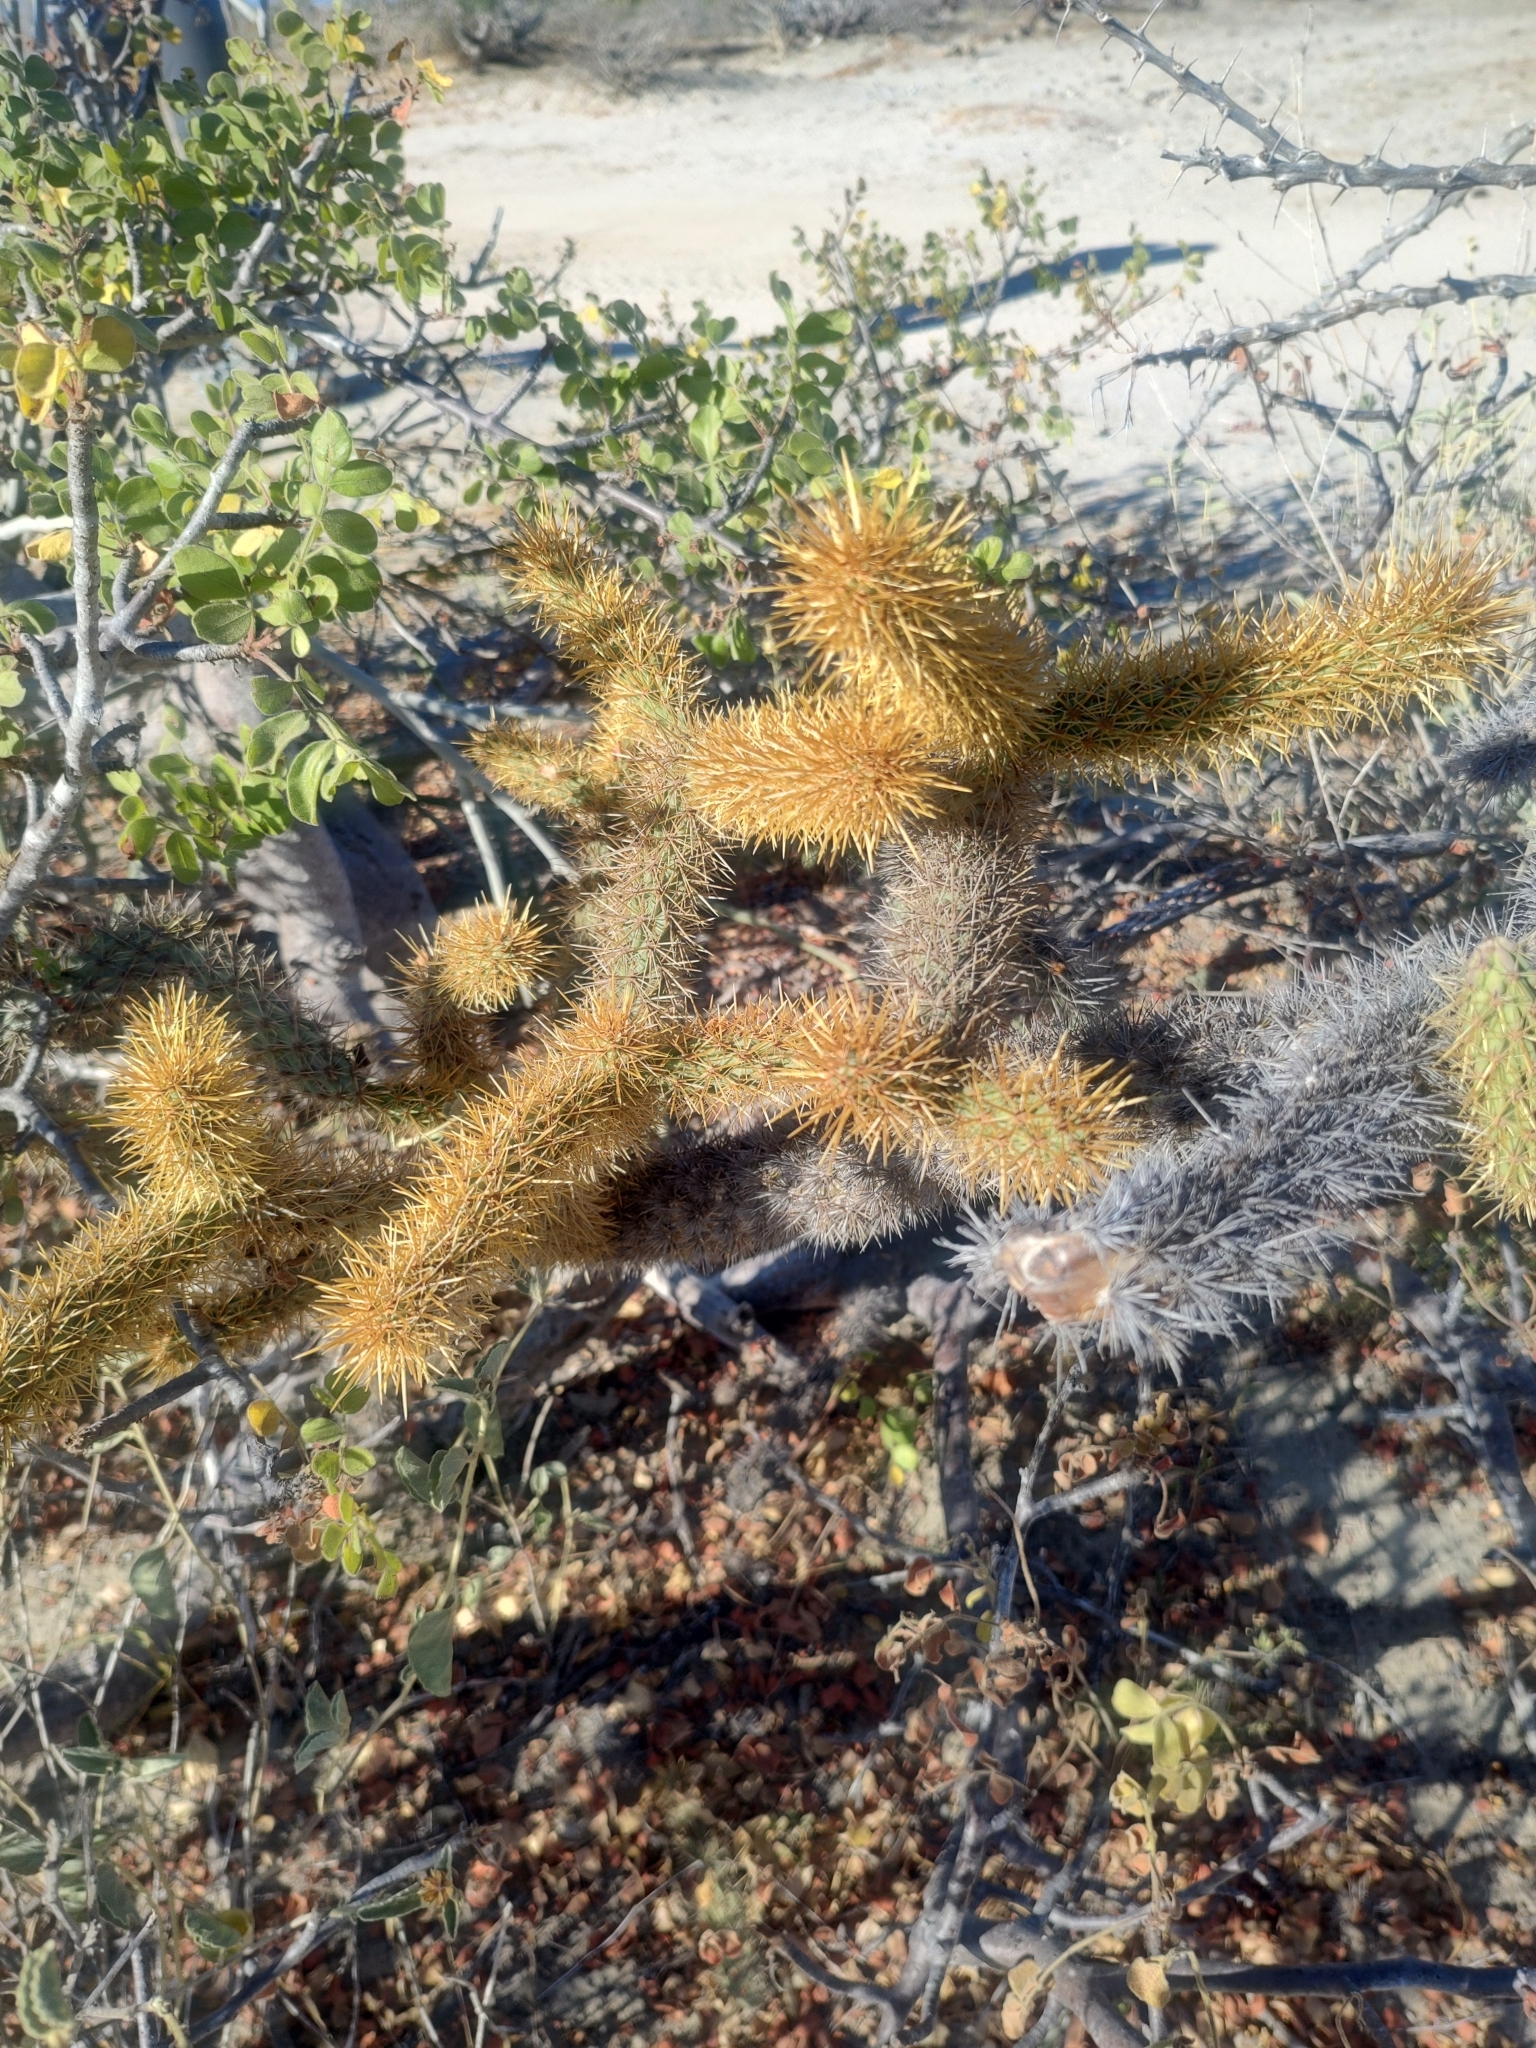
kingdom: Plantae
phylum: Tracheophyta
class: Magnoliopsida
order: Caryophyllales
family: Cactaceae
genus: Cylindropuntia
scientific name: Cylindropuntia alcahes
